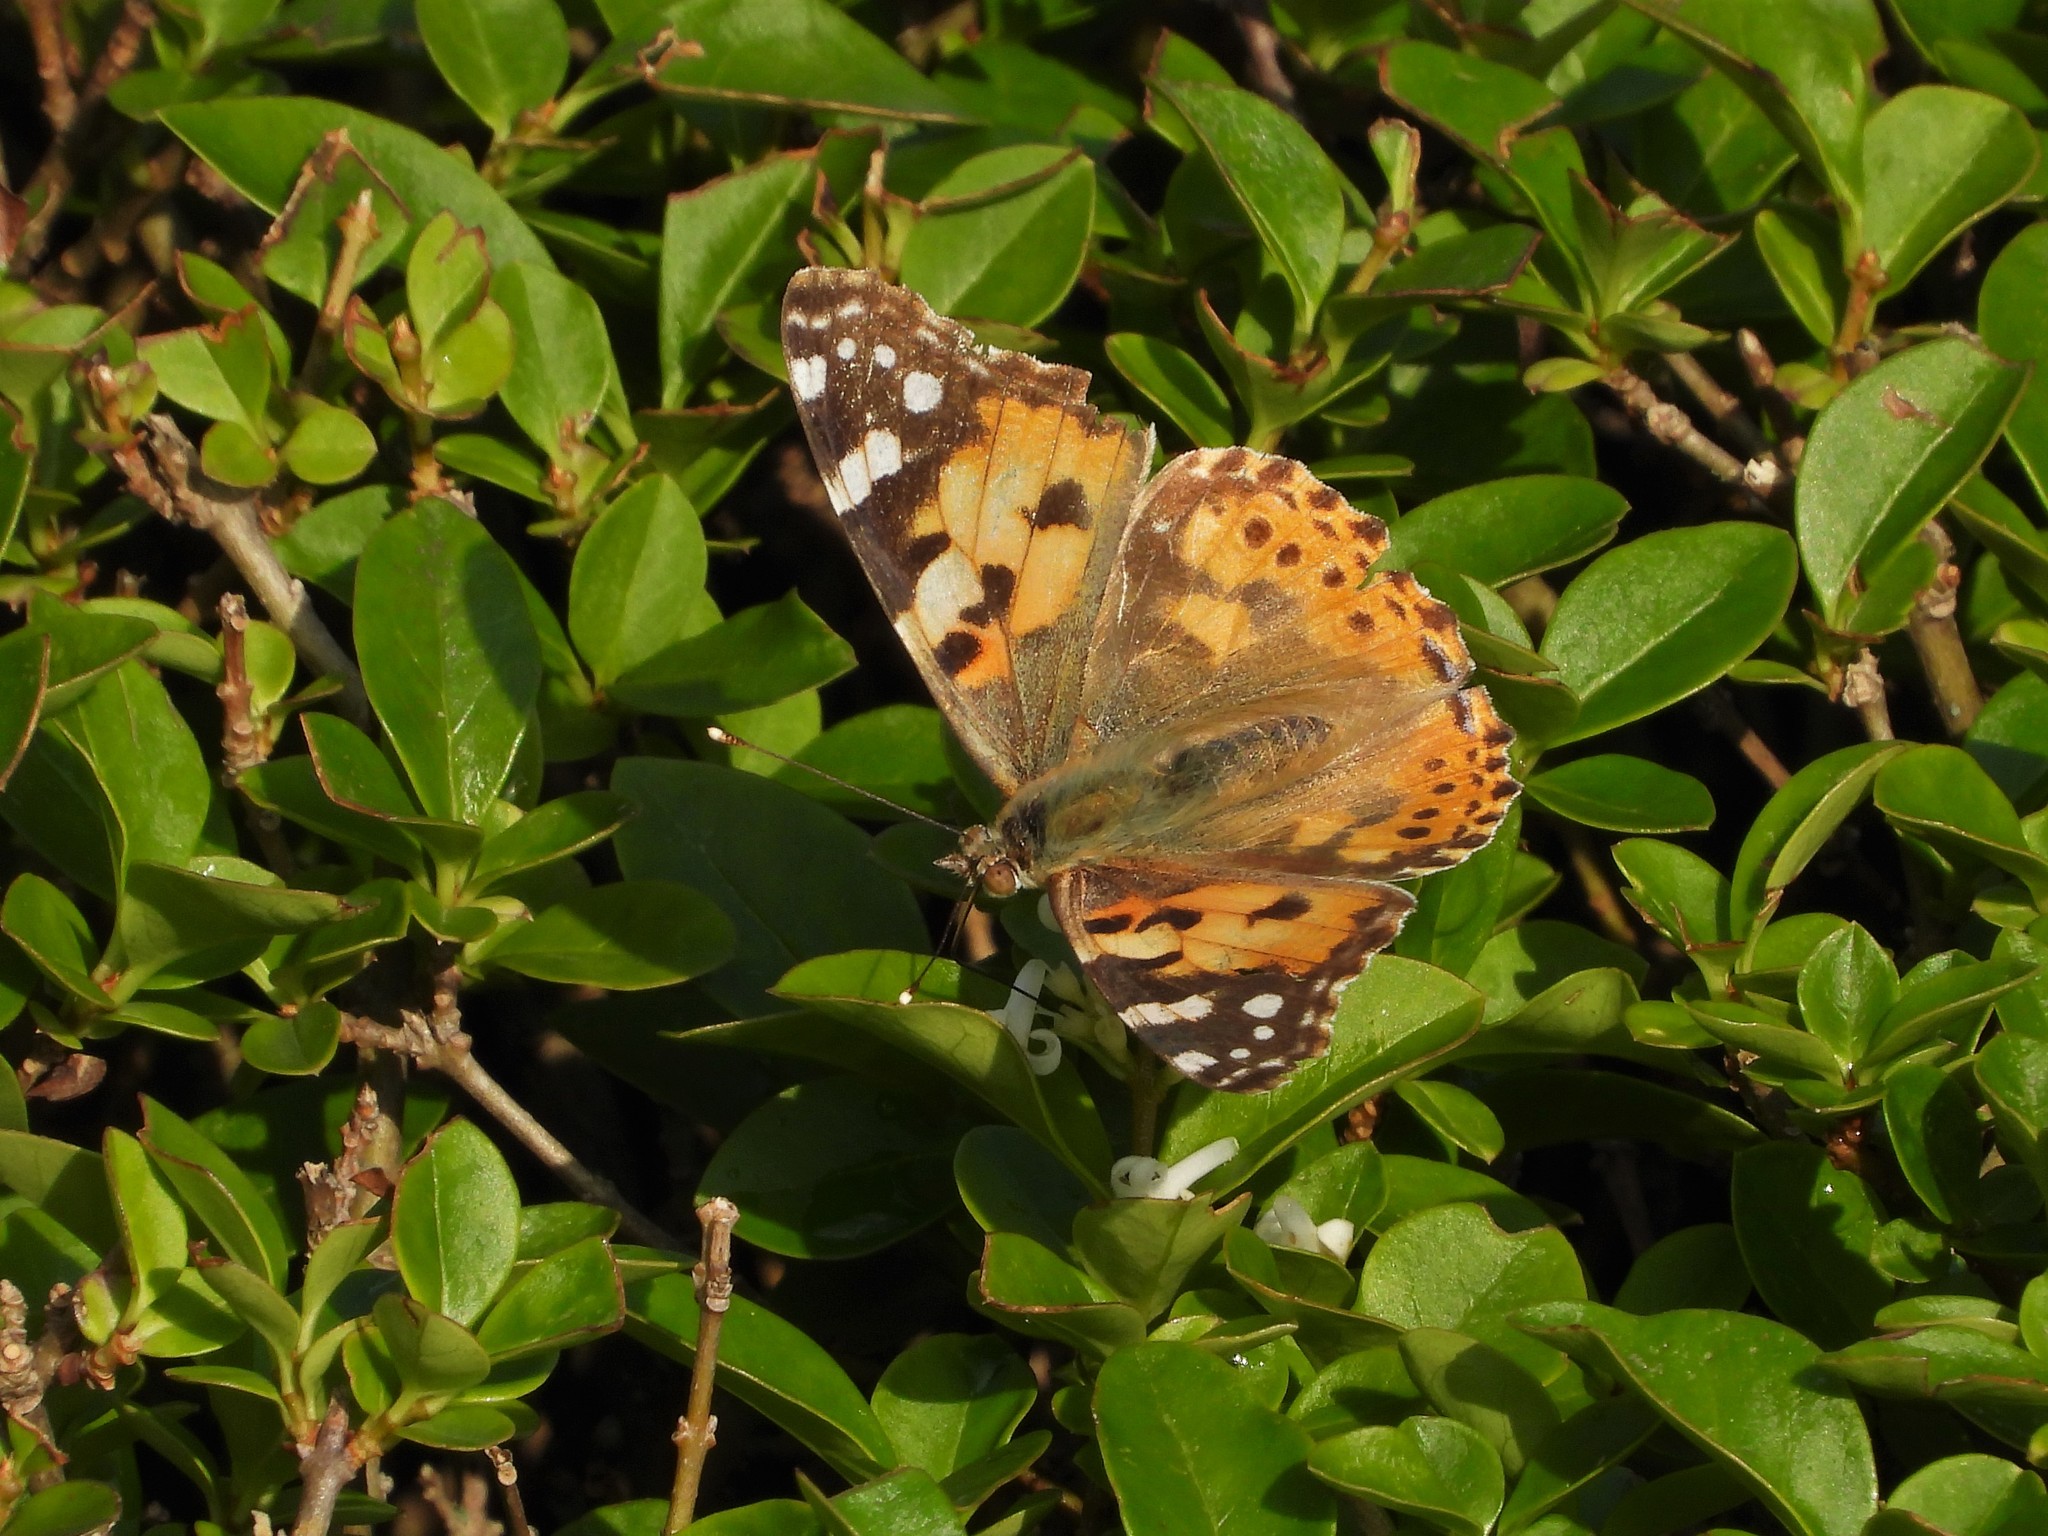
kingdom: Animalia
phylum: Arthropoda
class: Insecta
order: Lepidoptera
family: Nymphalidae
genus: Vanessa
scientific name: Vanessa cardui
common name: Painted lady
